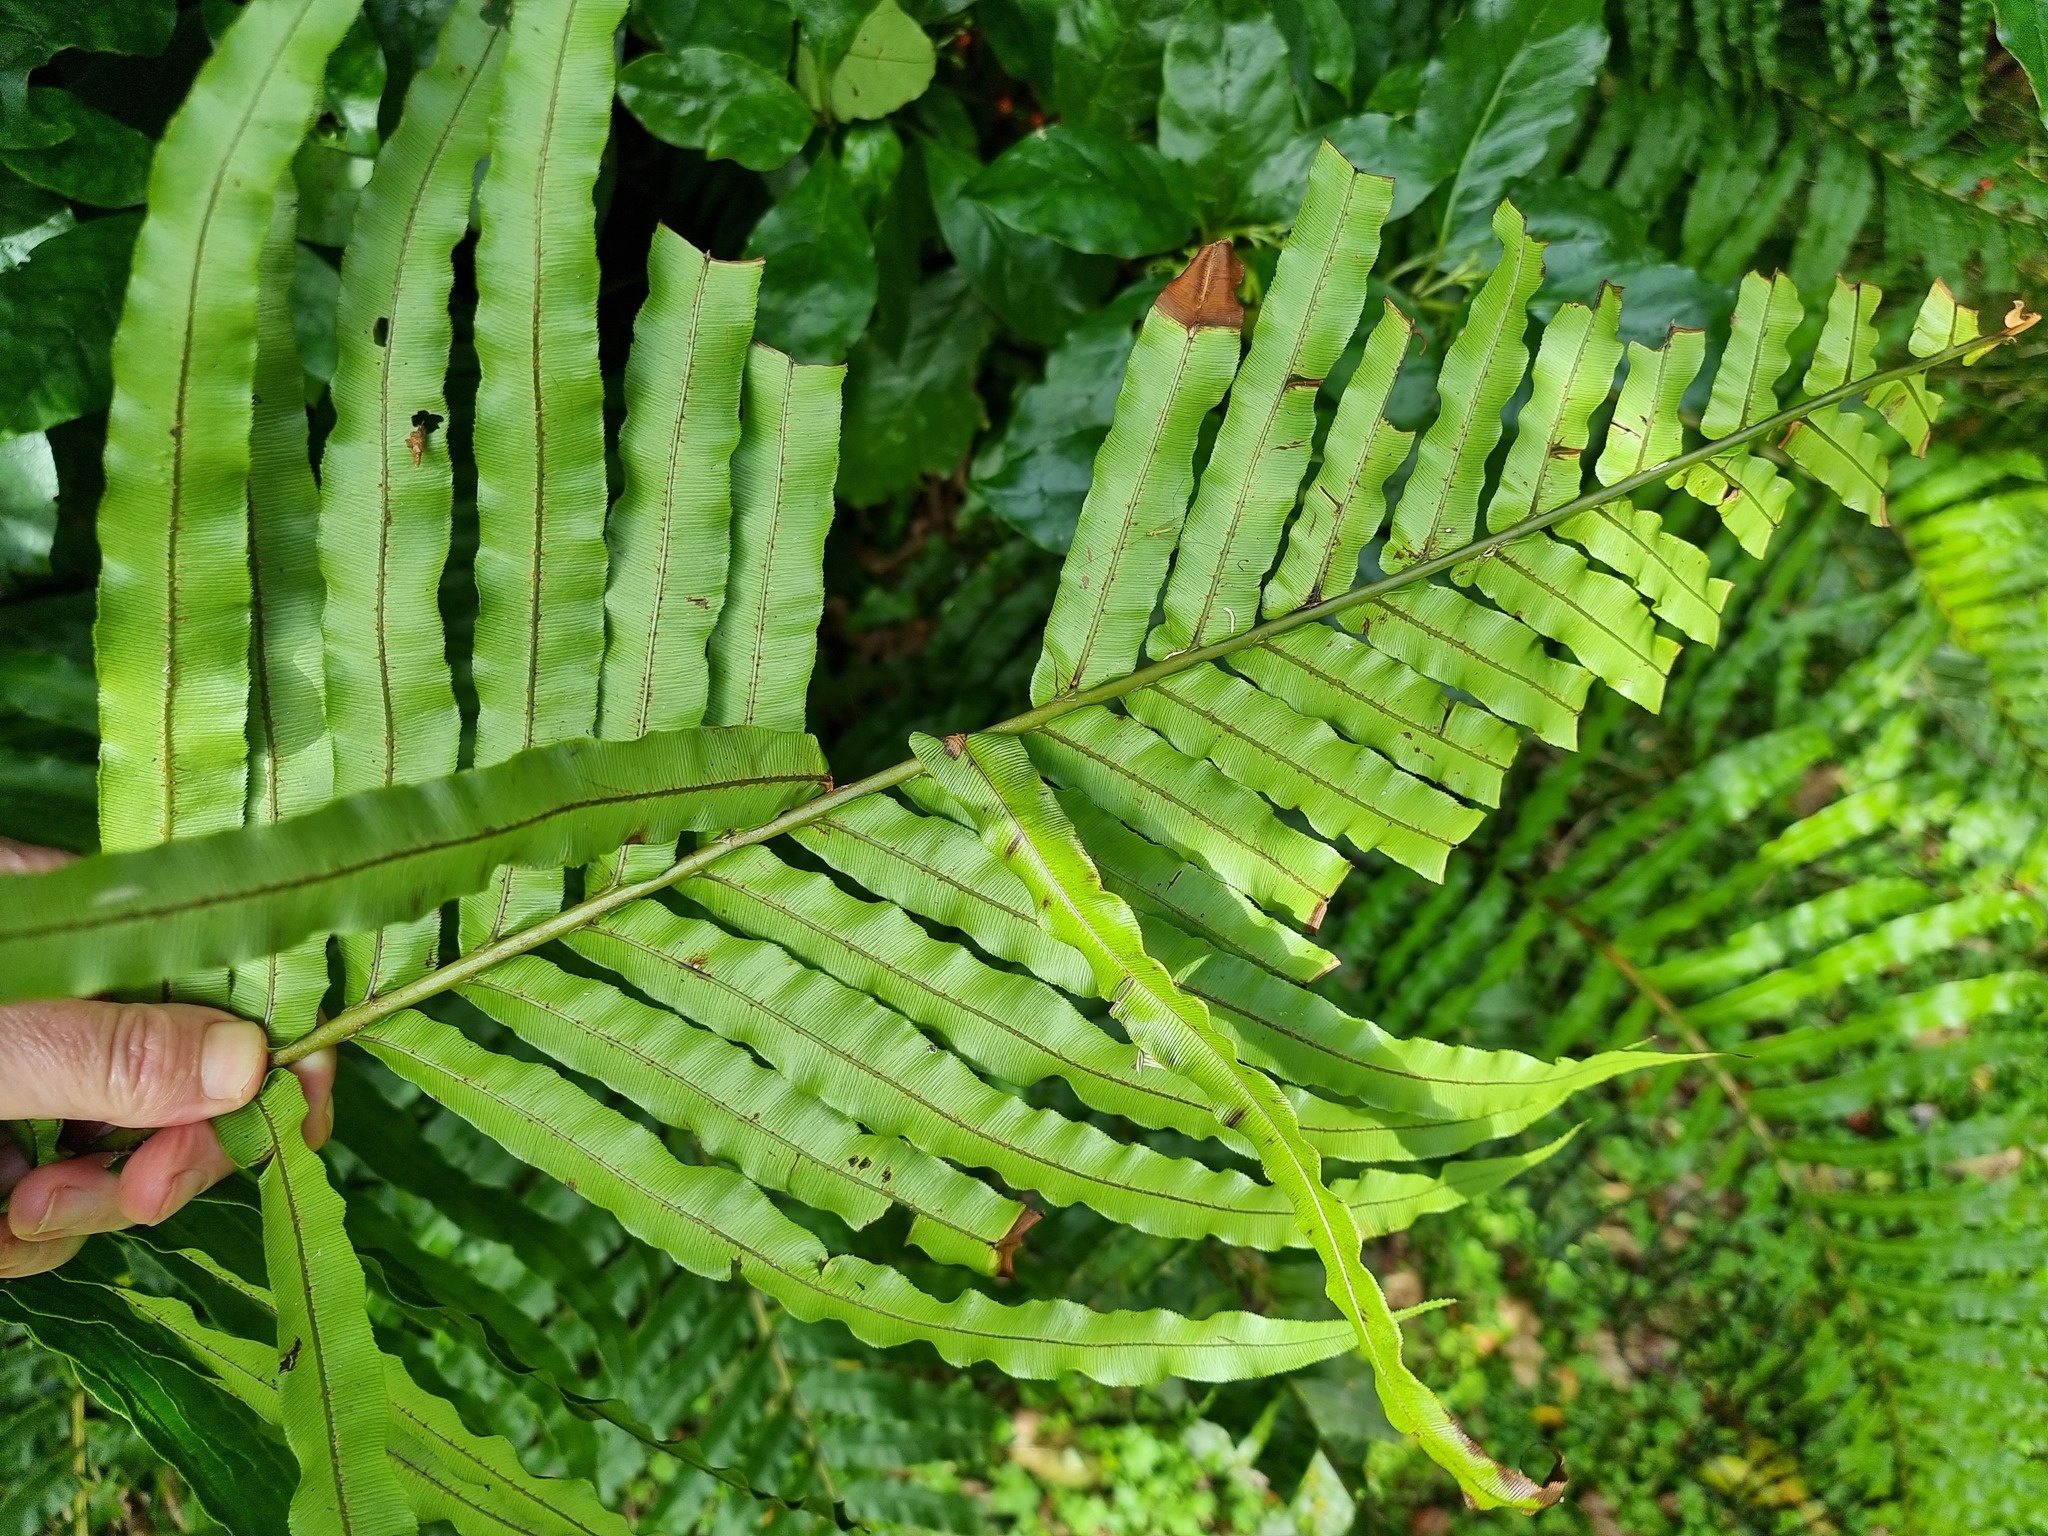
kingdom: Plantae
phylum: Tracheophyta
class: Polypodiopsida
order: Polypodiales
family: Blechnaceae
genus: Parablechnum
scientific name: Parablechnum novae-zelandiae
